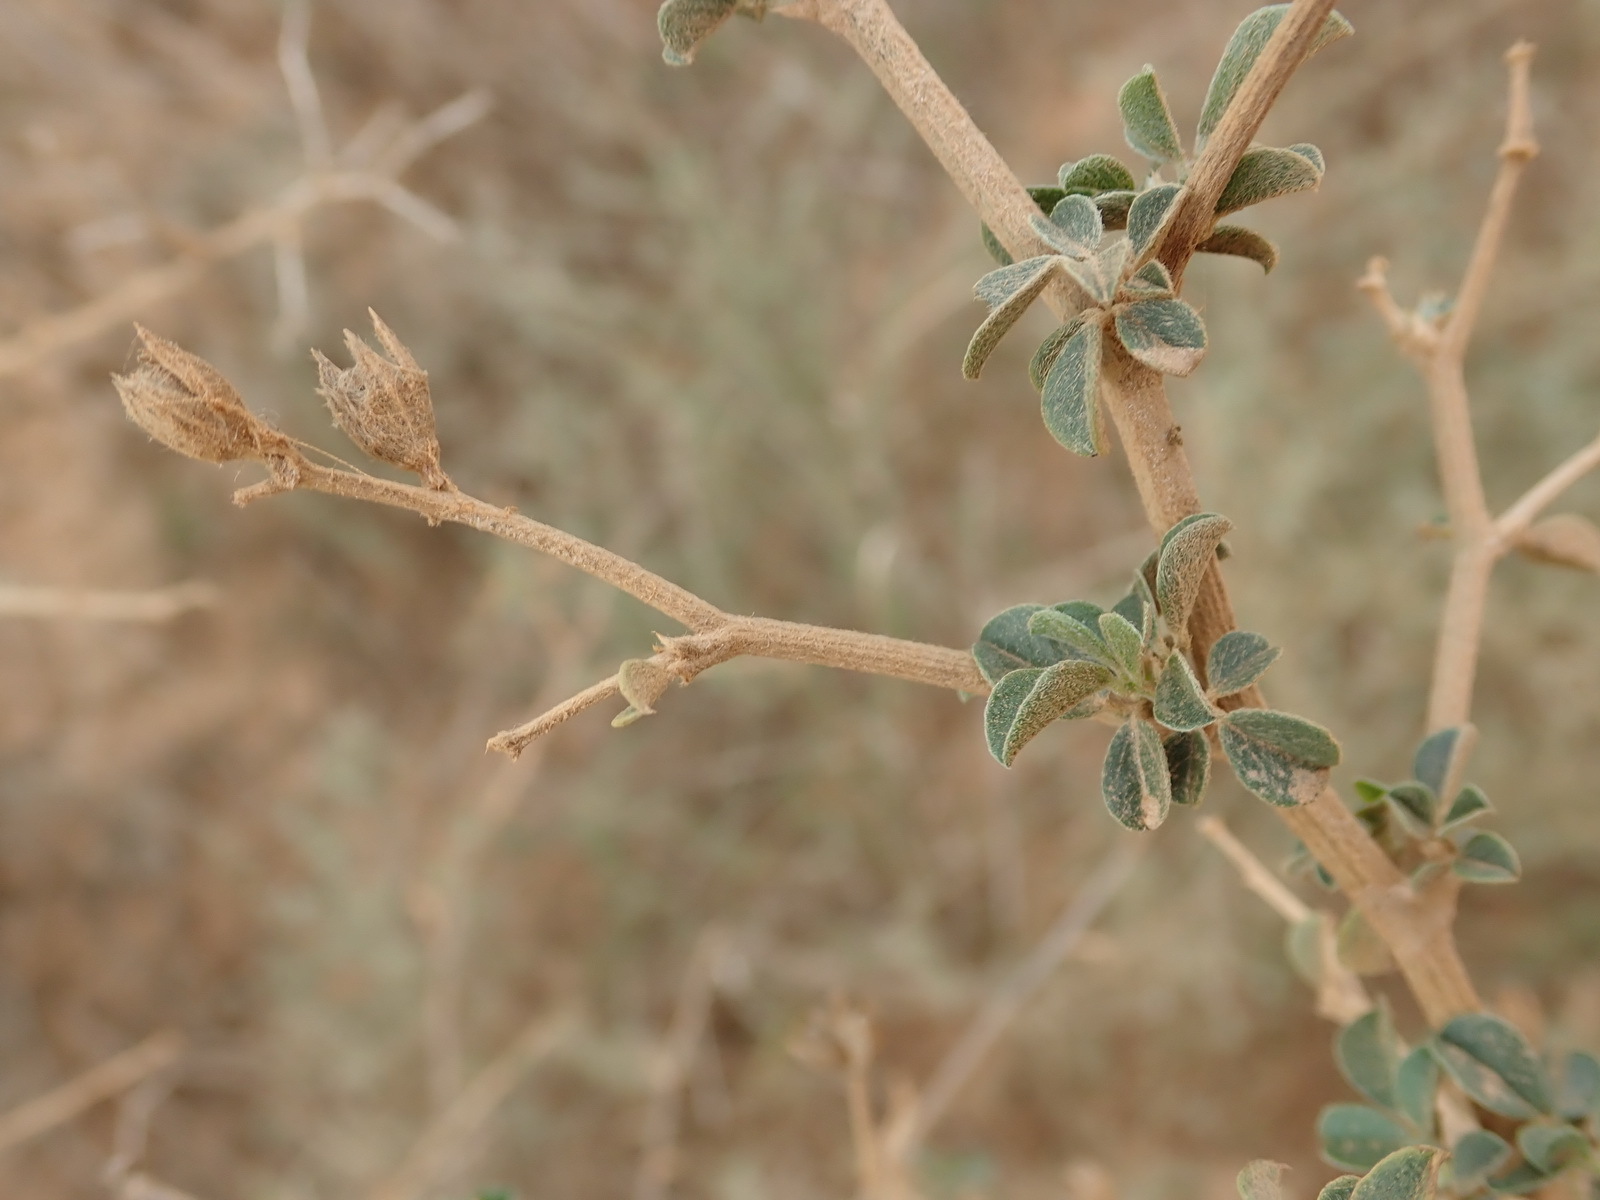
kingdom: Plantae
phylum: Tracheophyta
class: Magnoliopsida
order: Fabales
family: Fabaceae
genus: Psoralea
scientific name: Psoralea hirta
